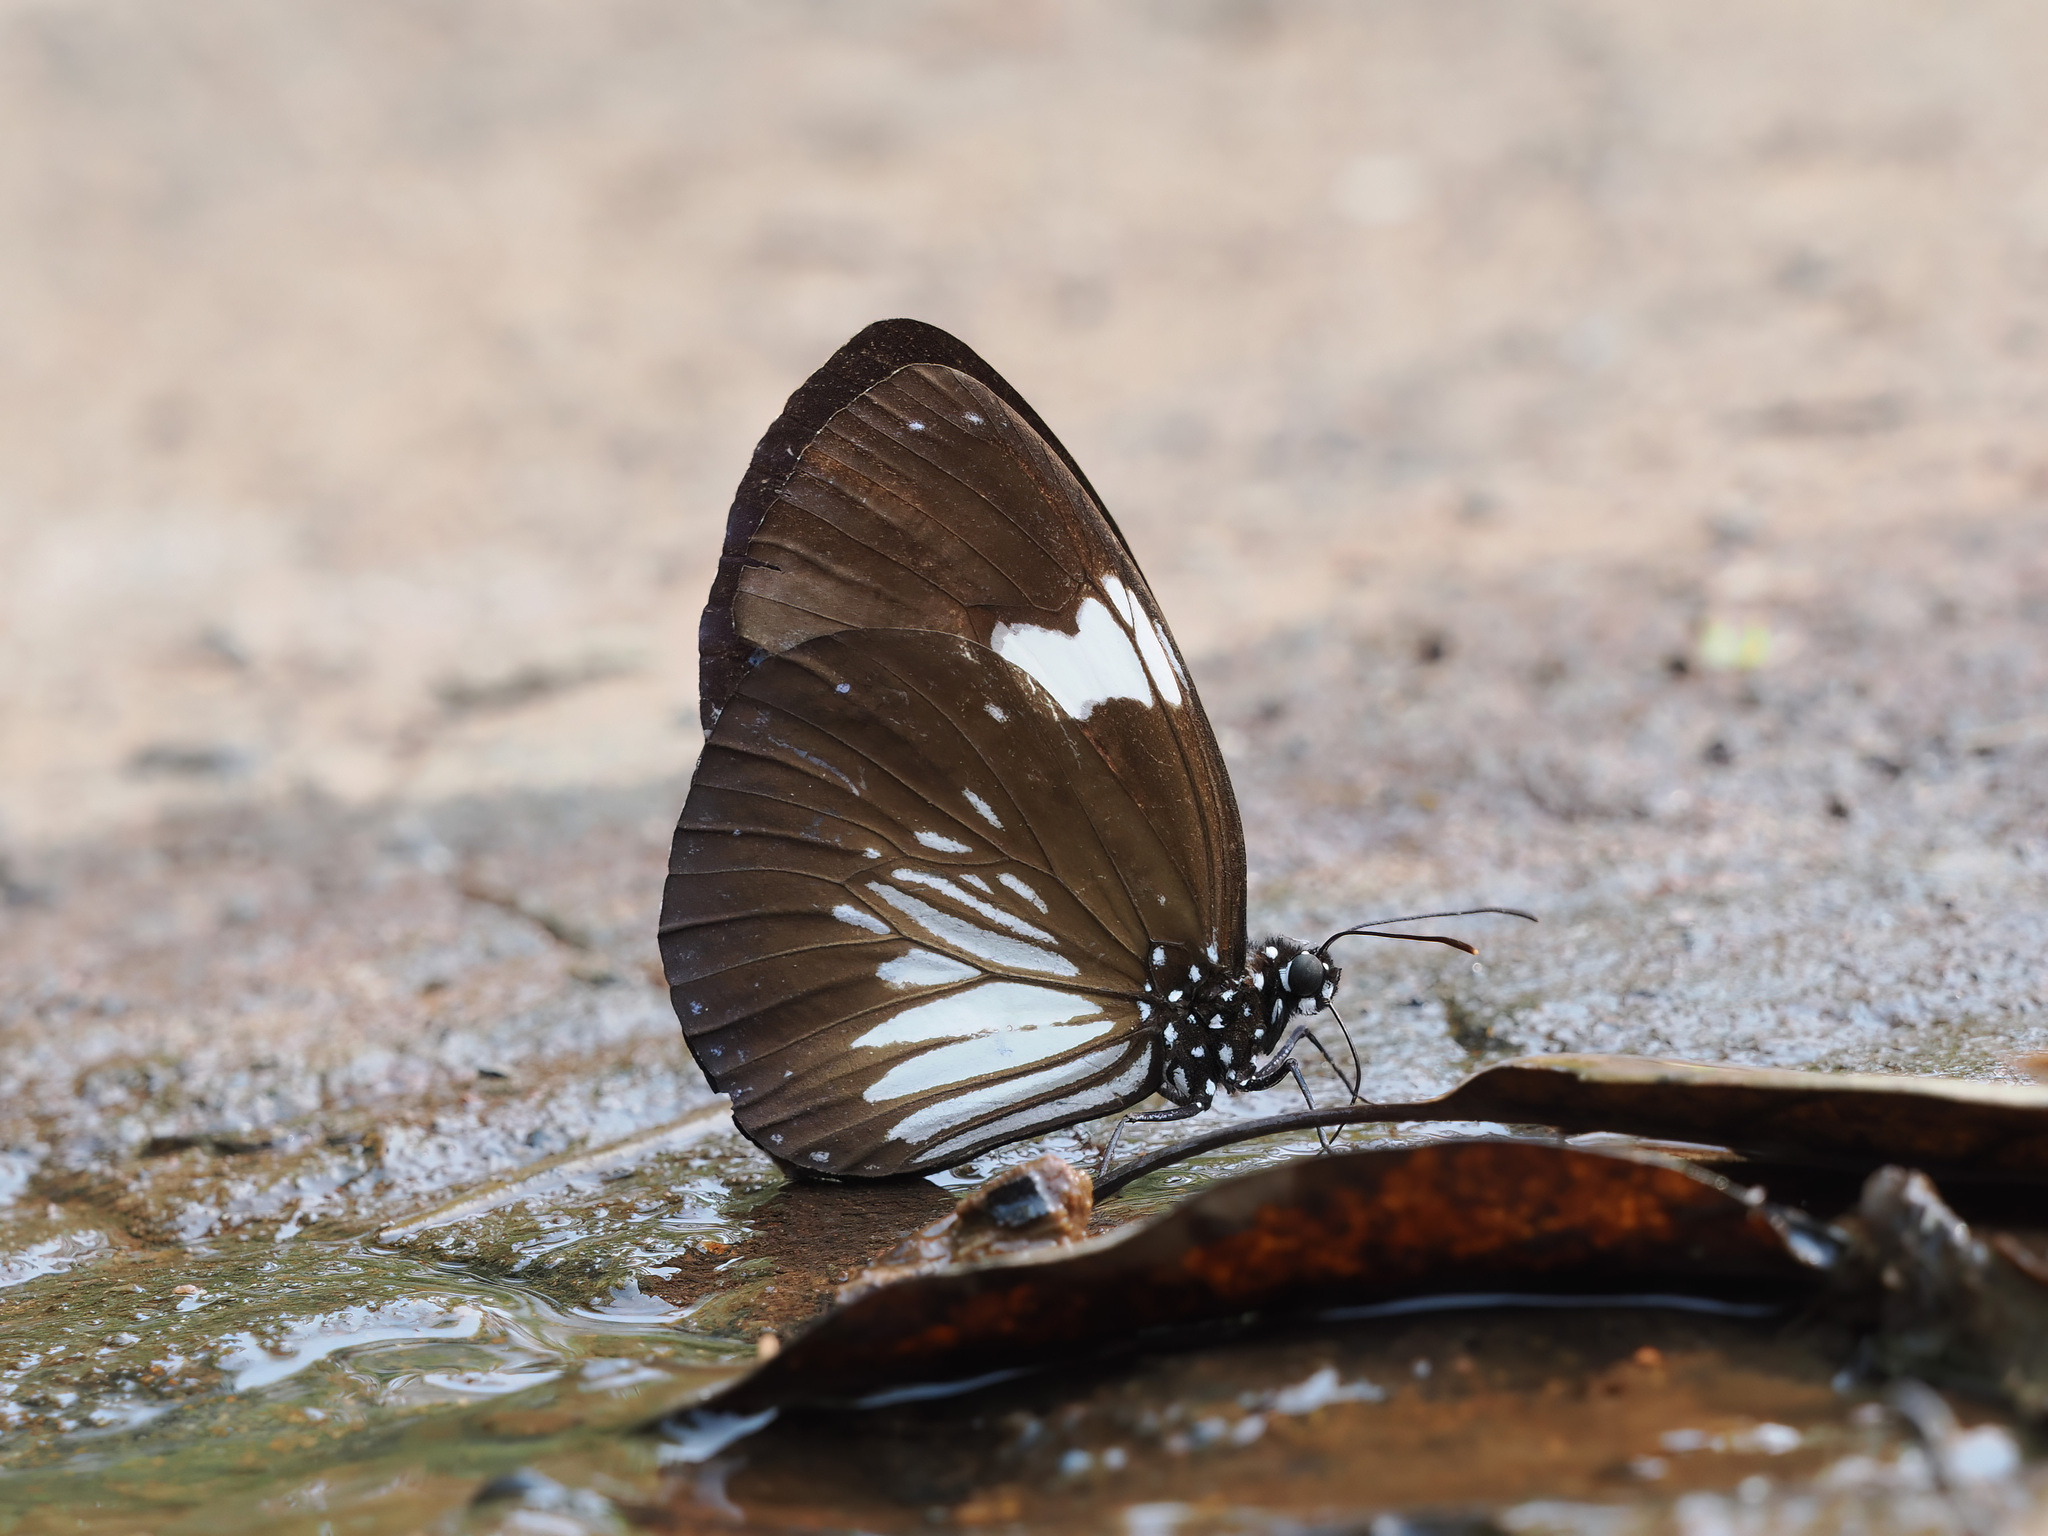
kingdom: Animalia
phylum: Arthropoda
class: Insecta
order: Lepidoptera
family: Nymphalidae
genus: Euploea
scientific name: Euploea radamanthus
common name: Magpie crow butterfly
